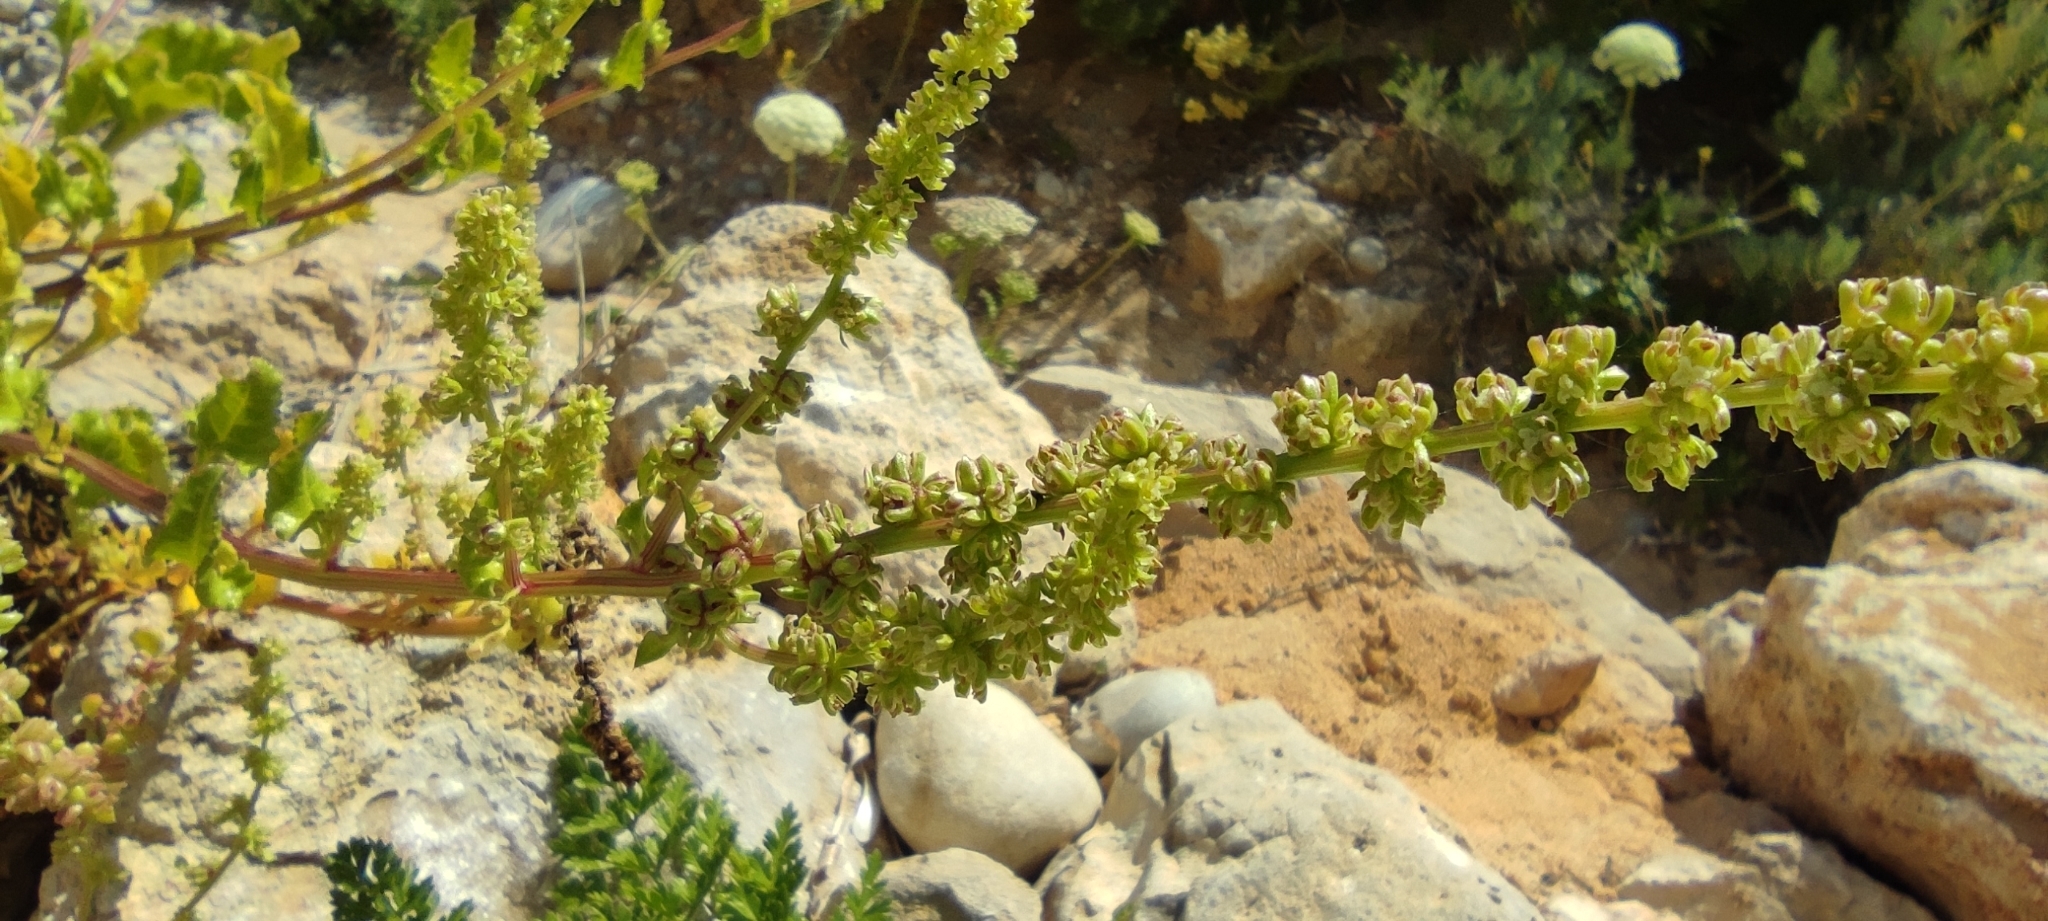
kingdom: Plantae
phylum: Tracheophyta
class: Magnoliopsida
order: Caryophyllales
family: Amaranthaceae
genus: Beta
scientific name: Beta vulgaris
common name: Beet
